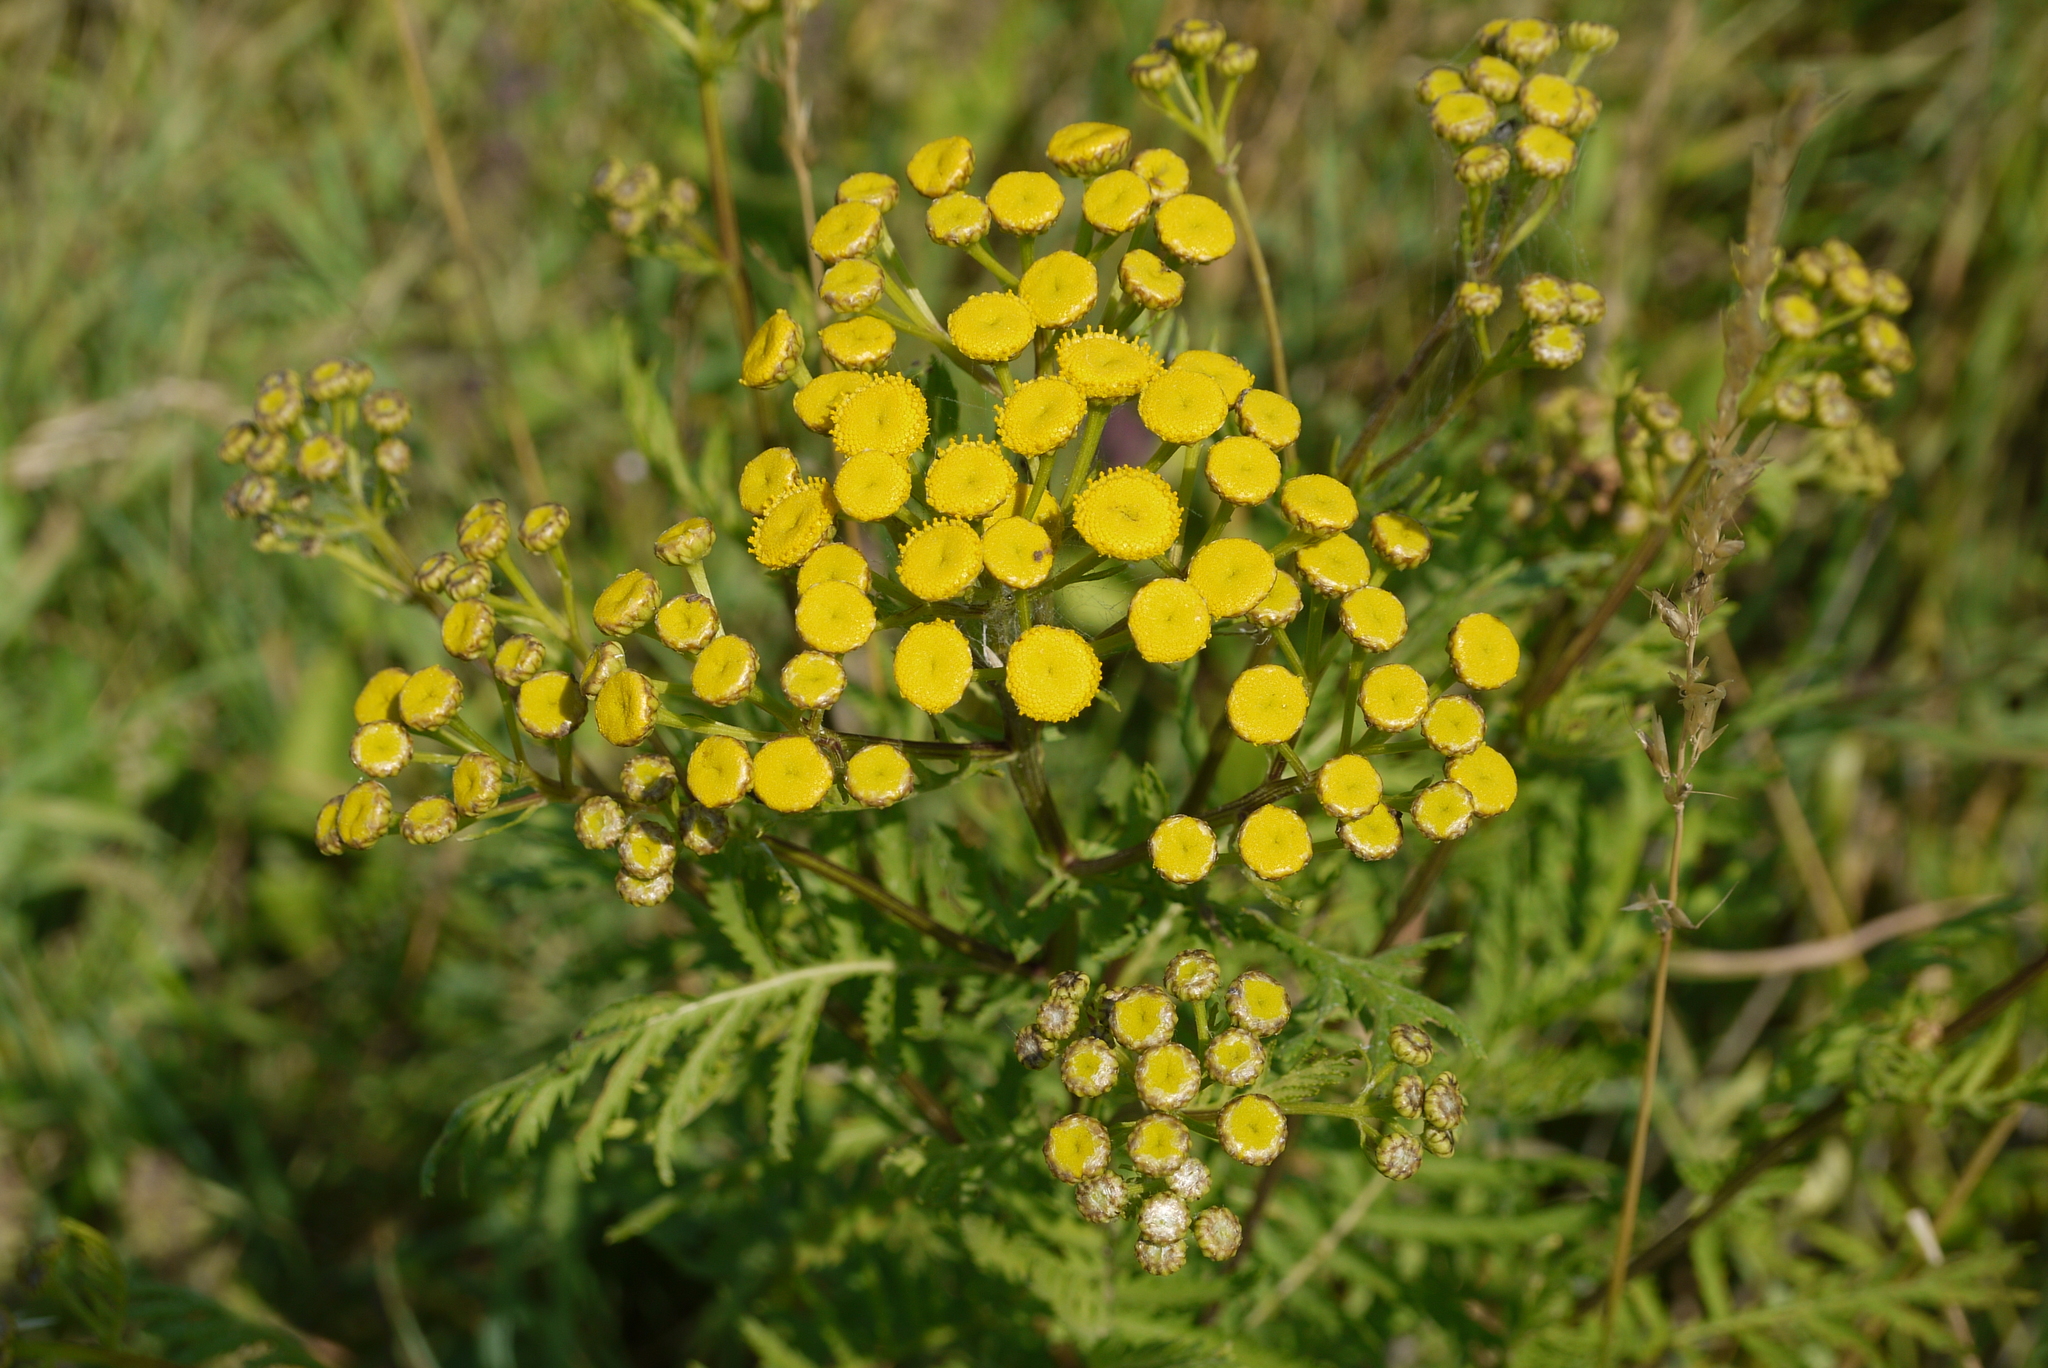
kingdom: Plantae
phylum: Tracheophyta
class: Magnoliopsida
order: Asterales
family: Asteraceae
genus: Tanacetum
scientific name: Tanacetum vulgare
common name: Common tansy
